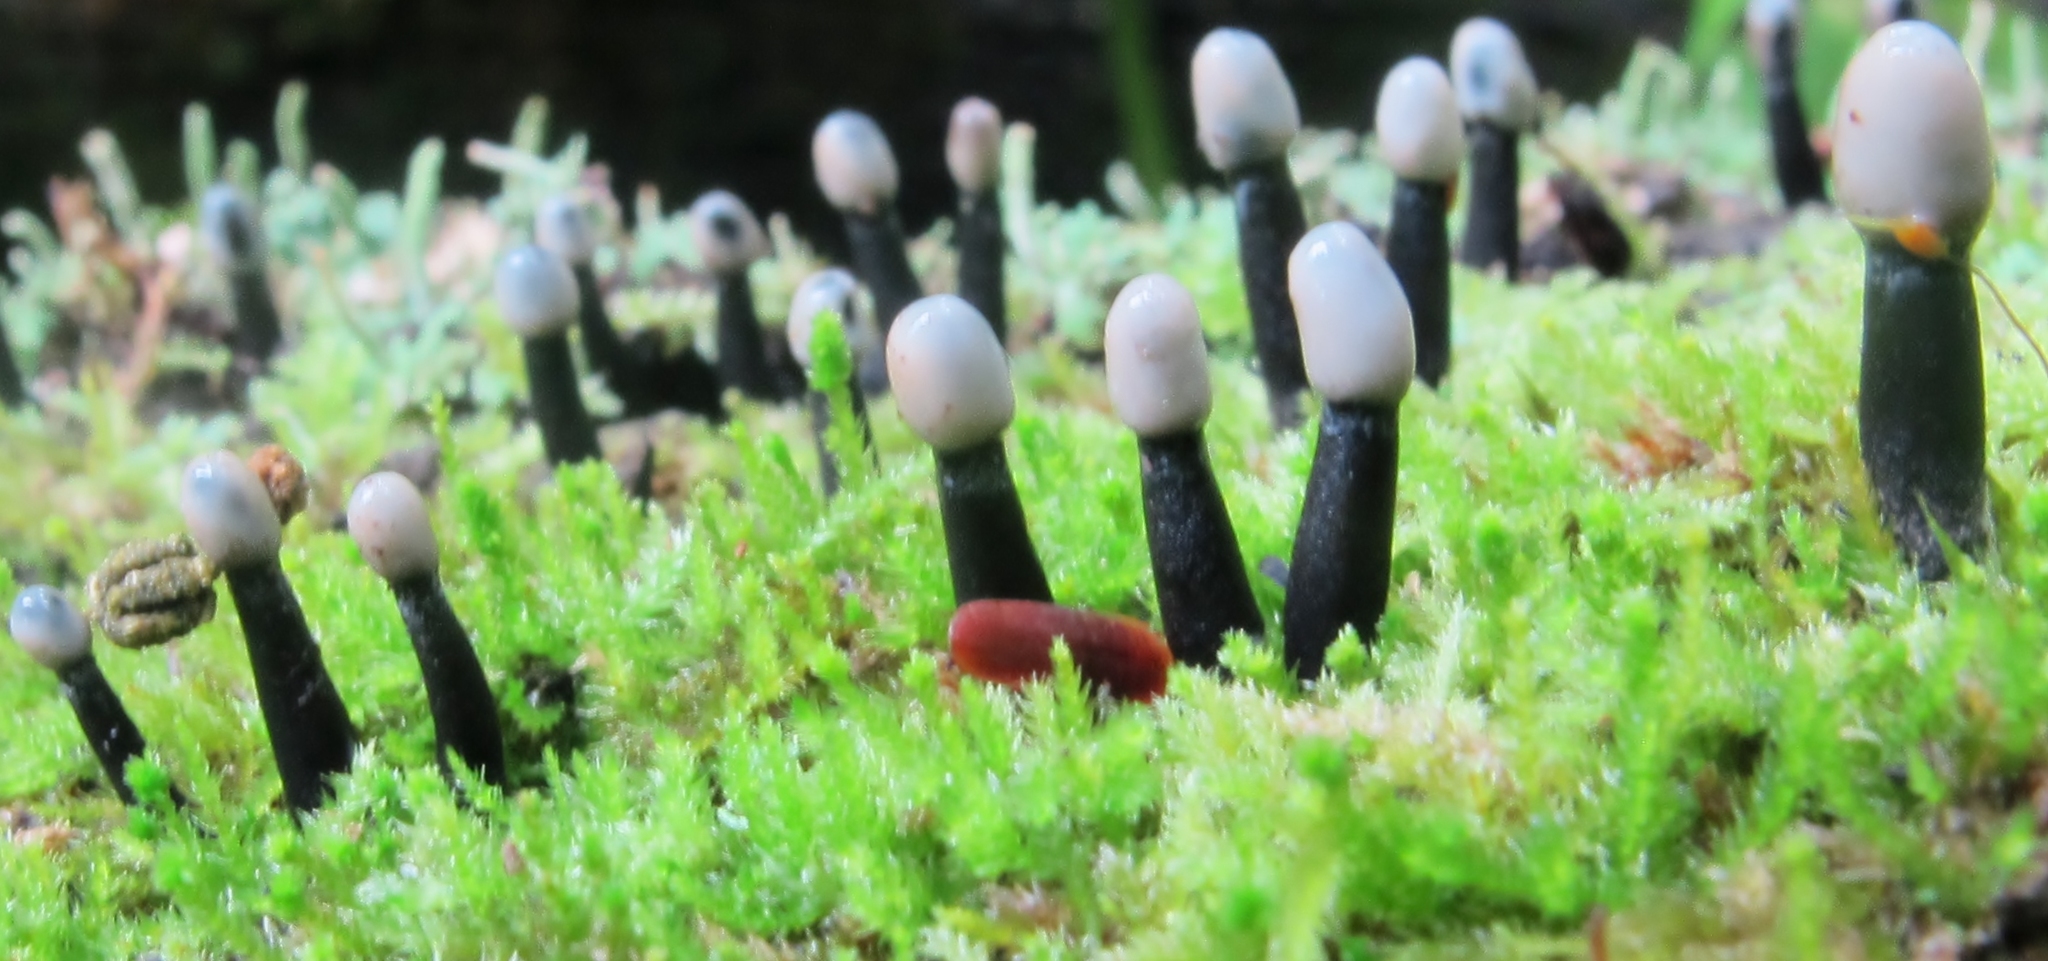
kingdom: Fungi
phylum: Ascomycota
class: Leotiomycetes
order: Helotiales
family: Bulgariaceae
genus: Holwaya
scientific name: Holwaya mucida
